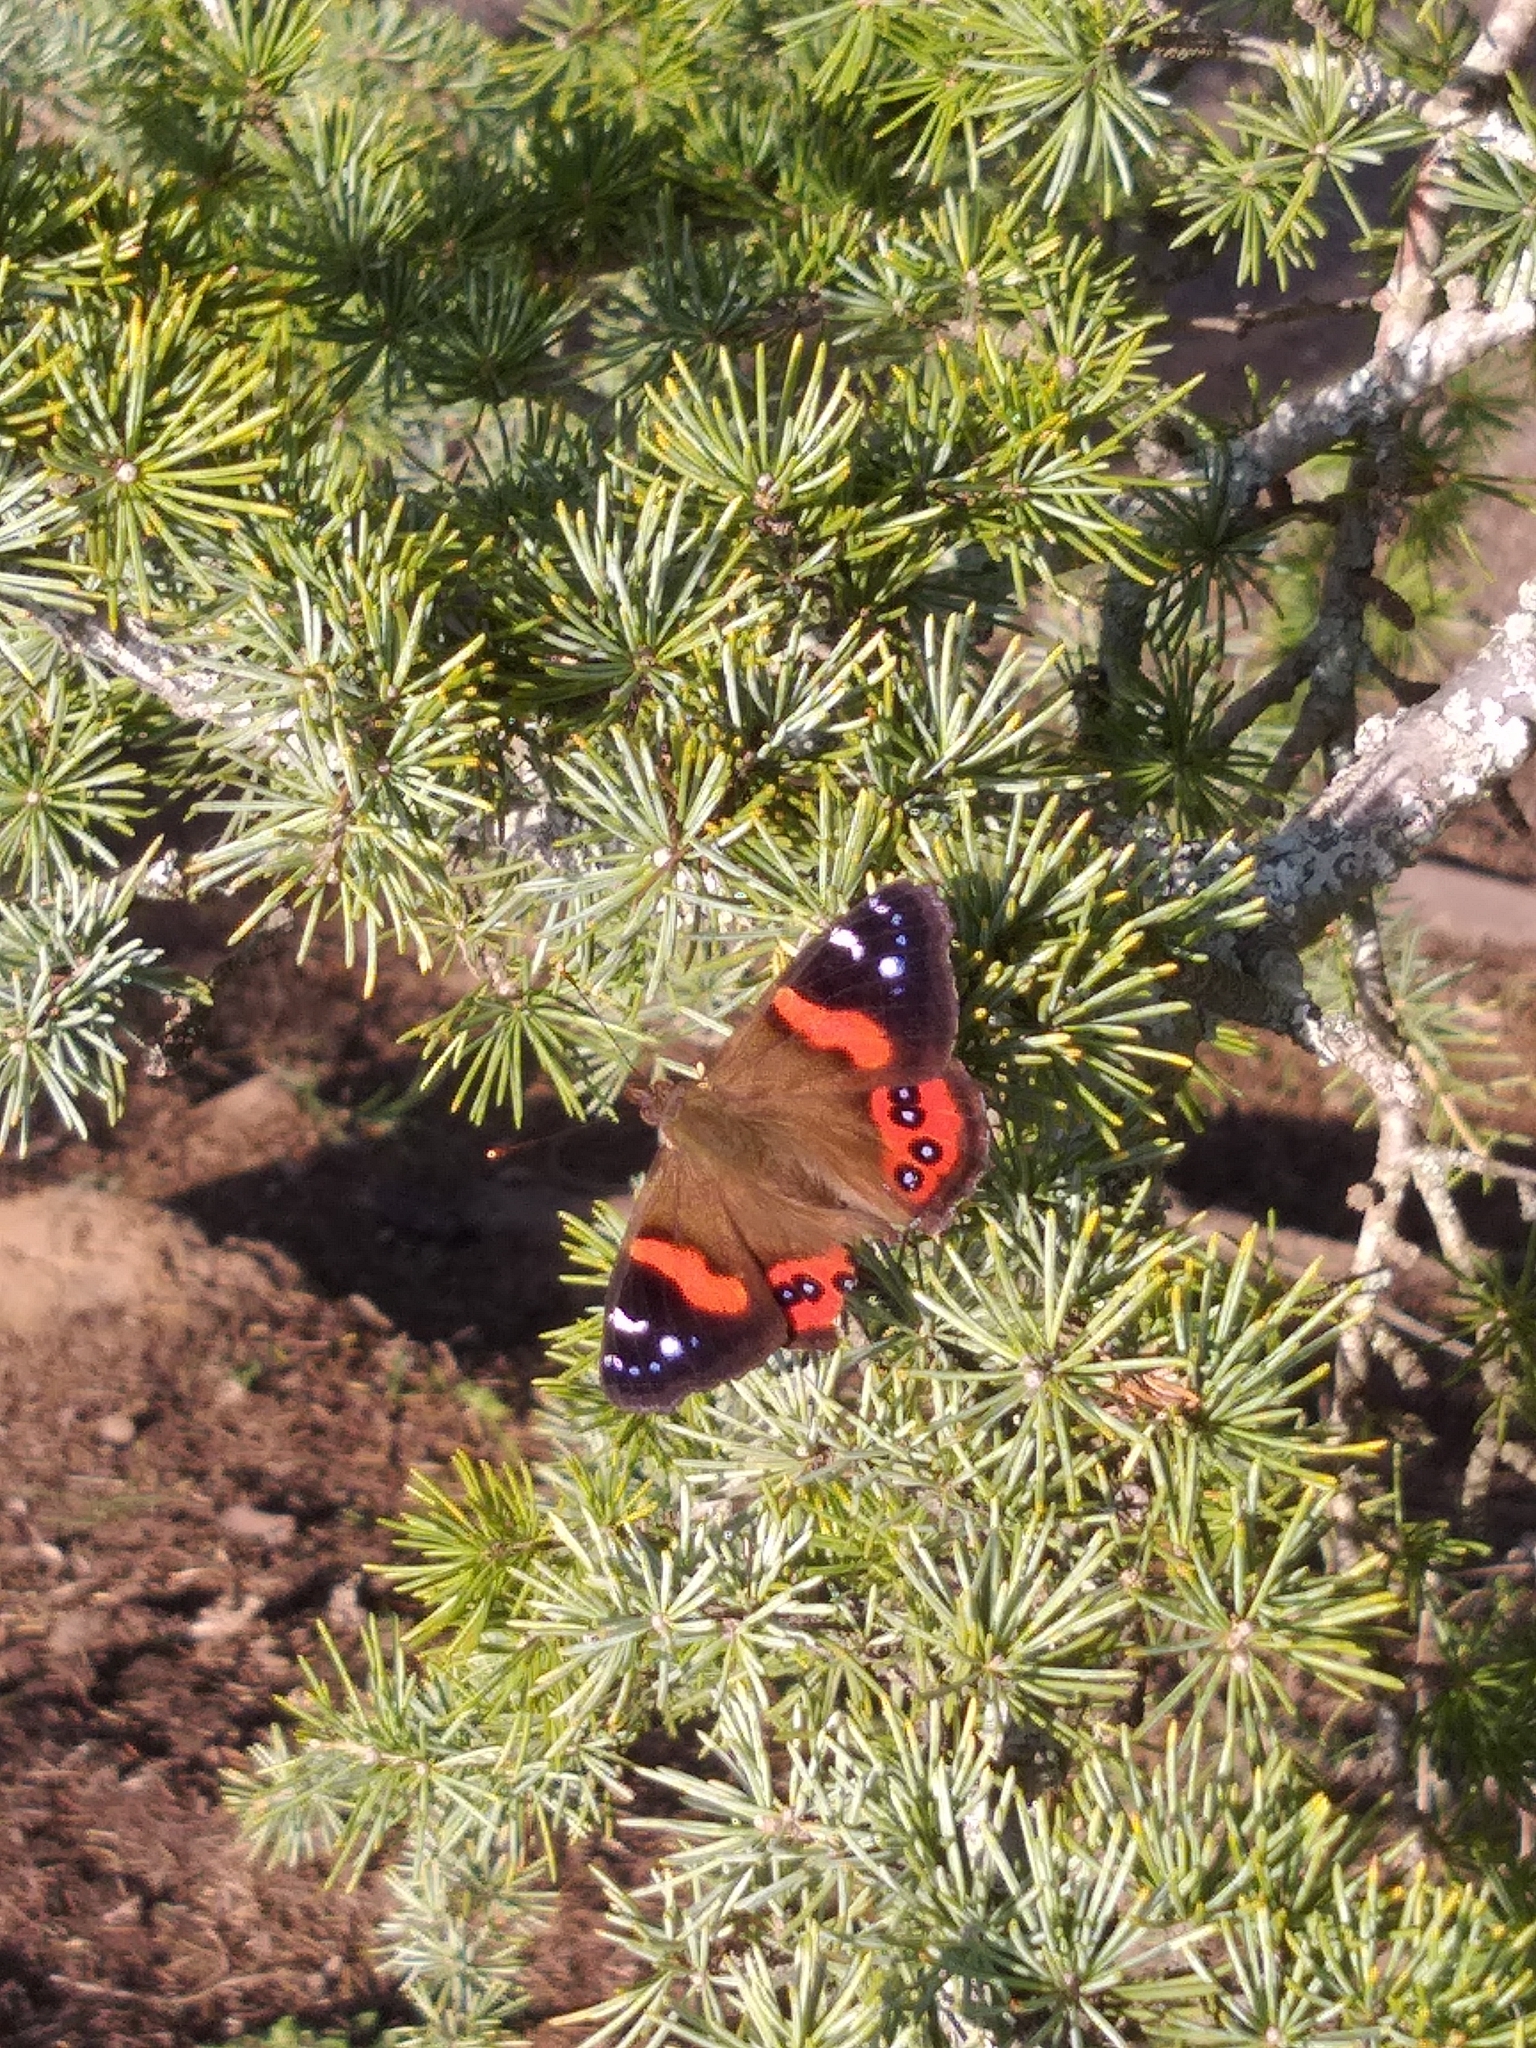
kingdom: Animalia
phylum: Arthropoda
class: Insecta
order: Lepidoptera
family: Nymphalidae
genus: Vanessa
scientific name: Vanessa gonerilla
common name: New zealand red admiral
